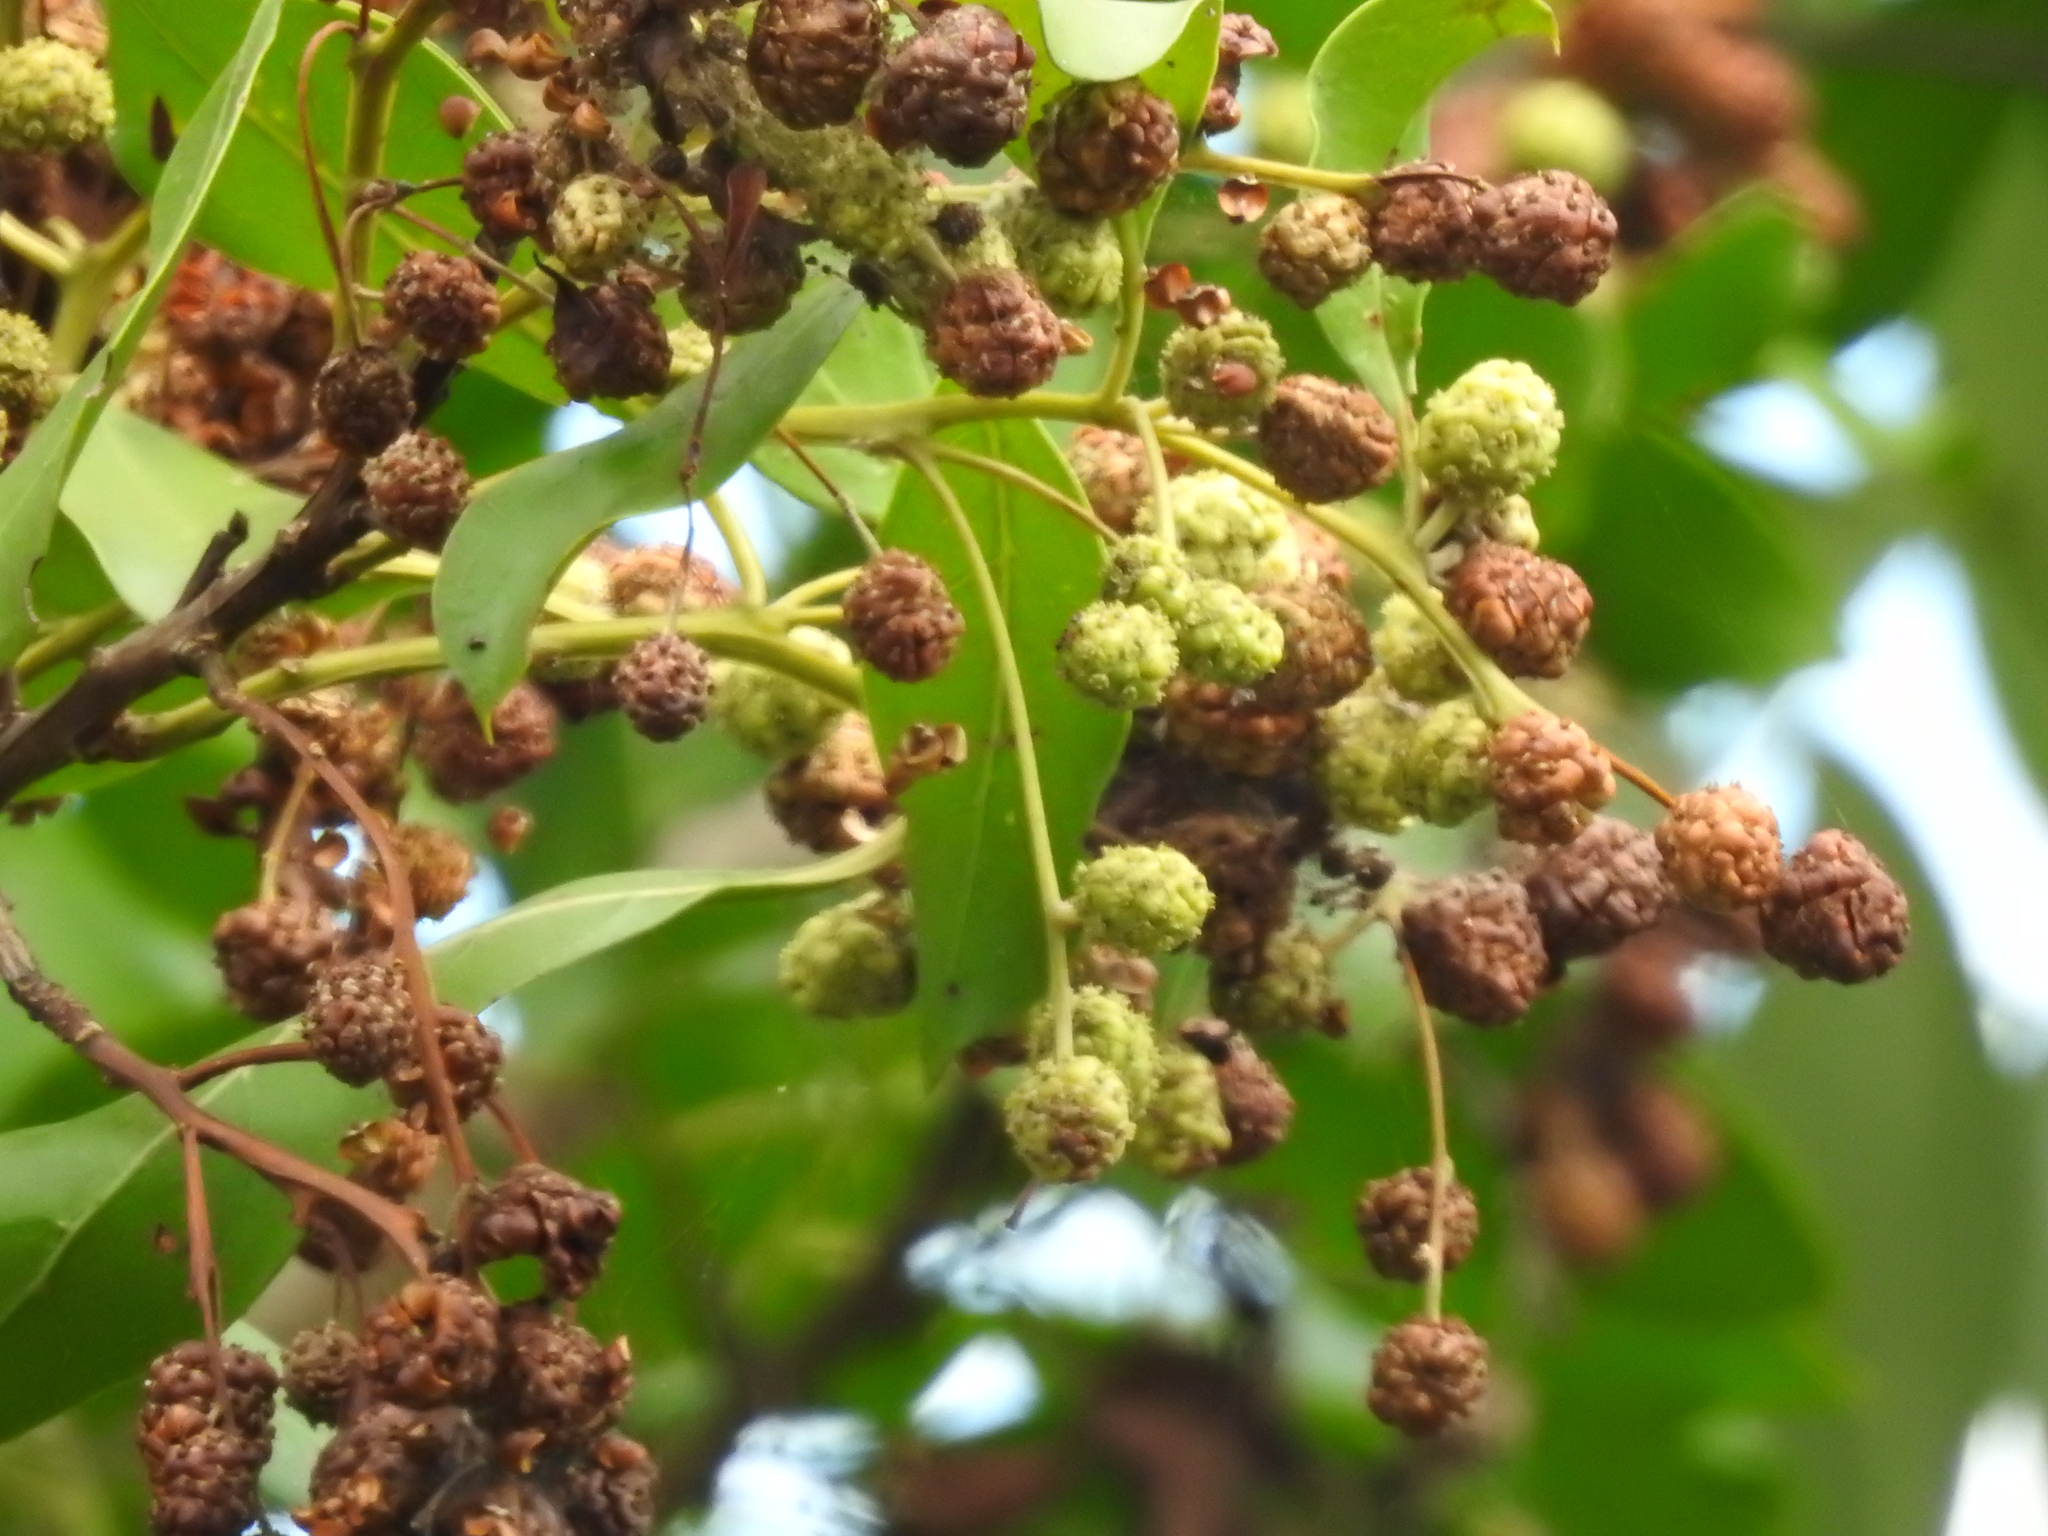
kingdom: Plantae
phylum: Tracheophyta
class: Magnoliopsida
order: Myrtales
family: Combretaceae
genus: Conocarpus
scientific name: Conocarpus erectus
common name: Button mangrove
